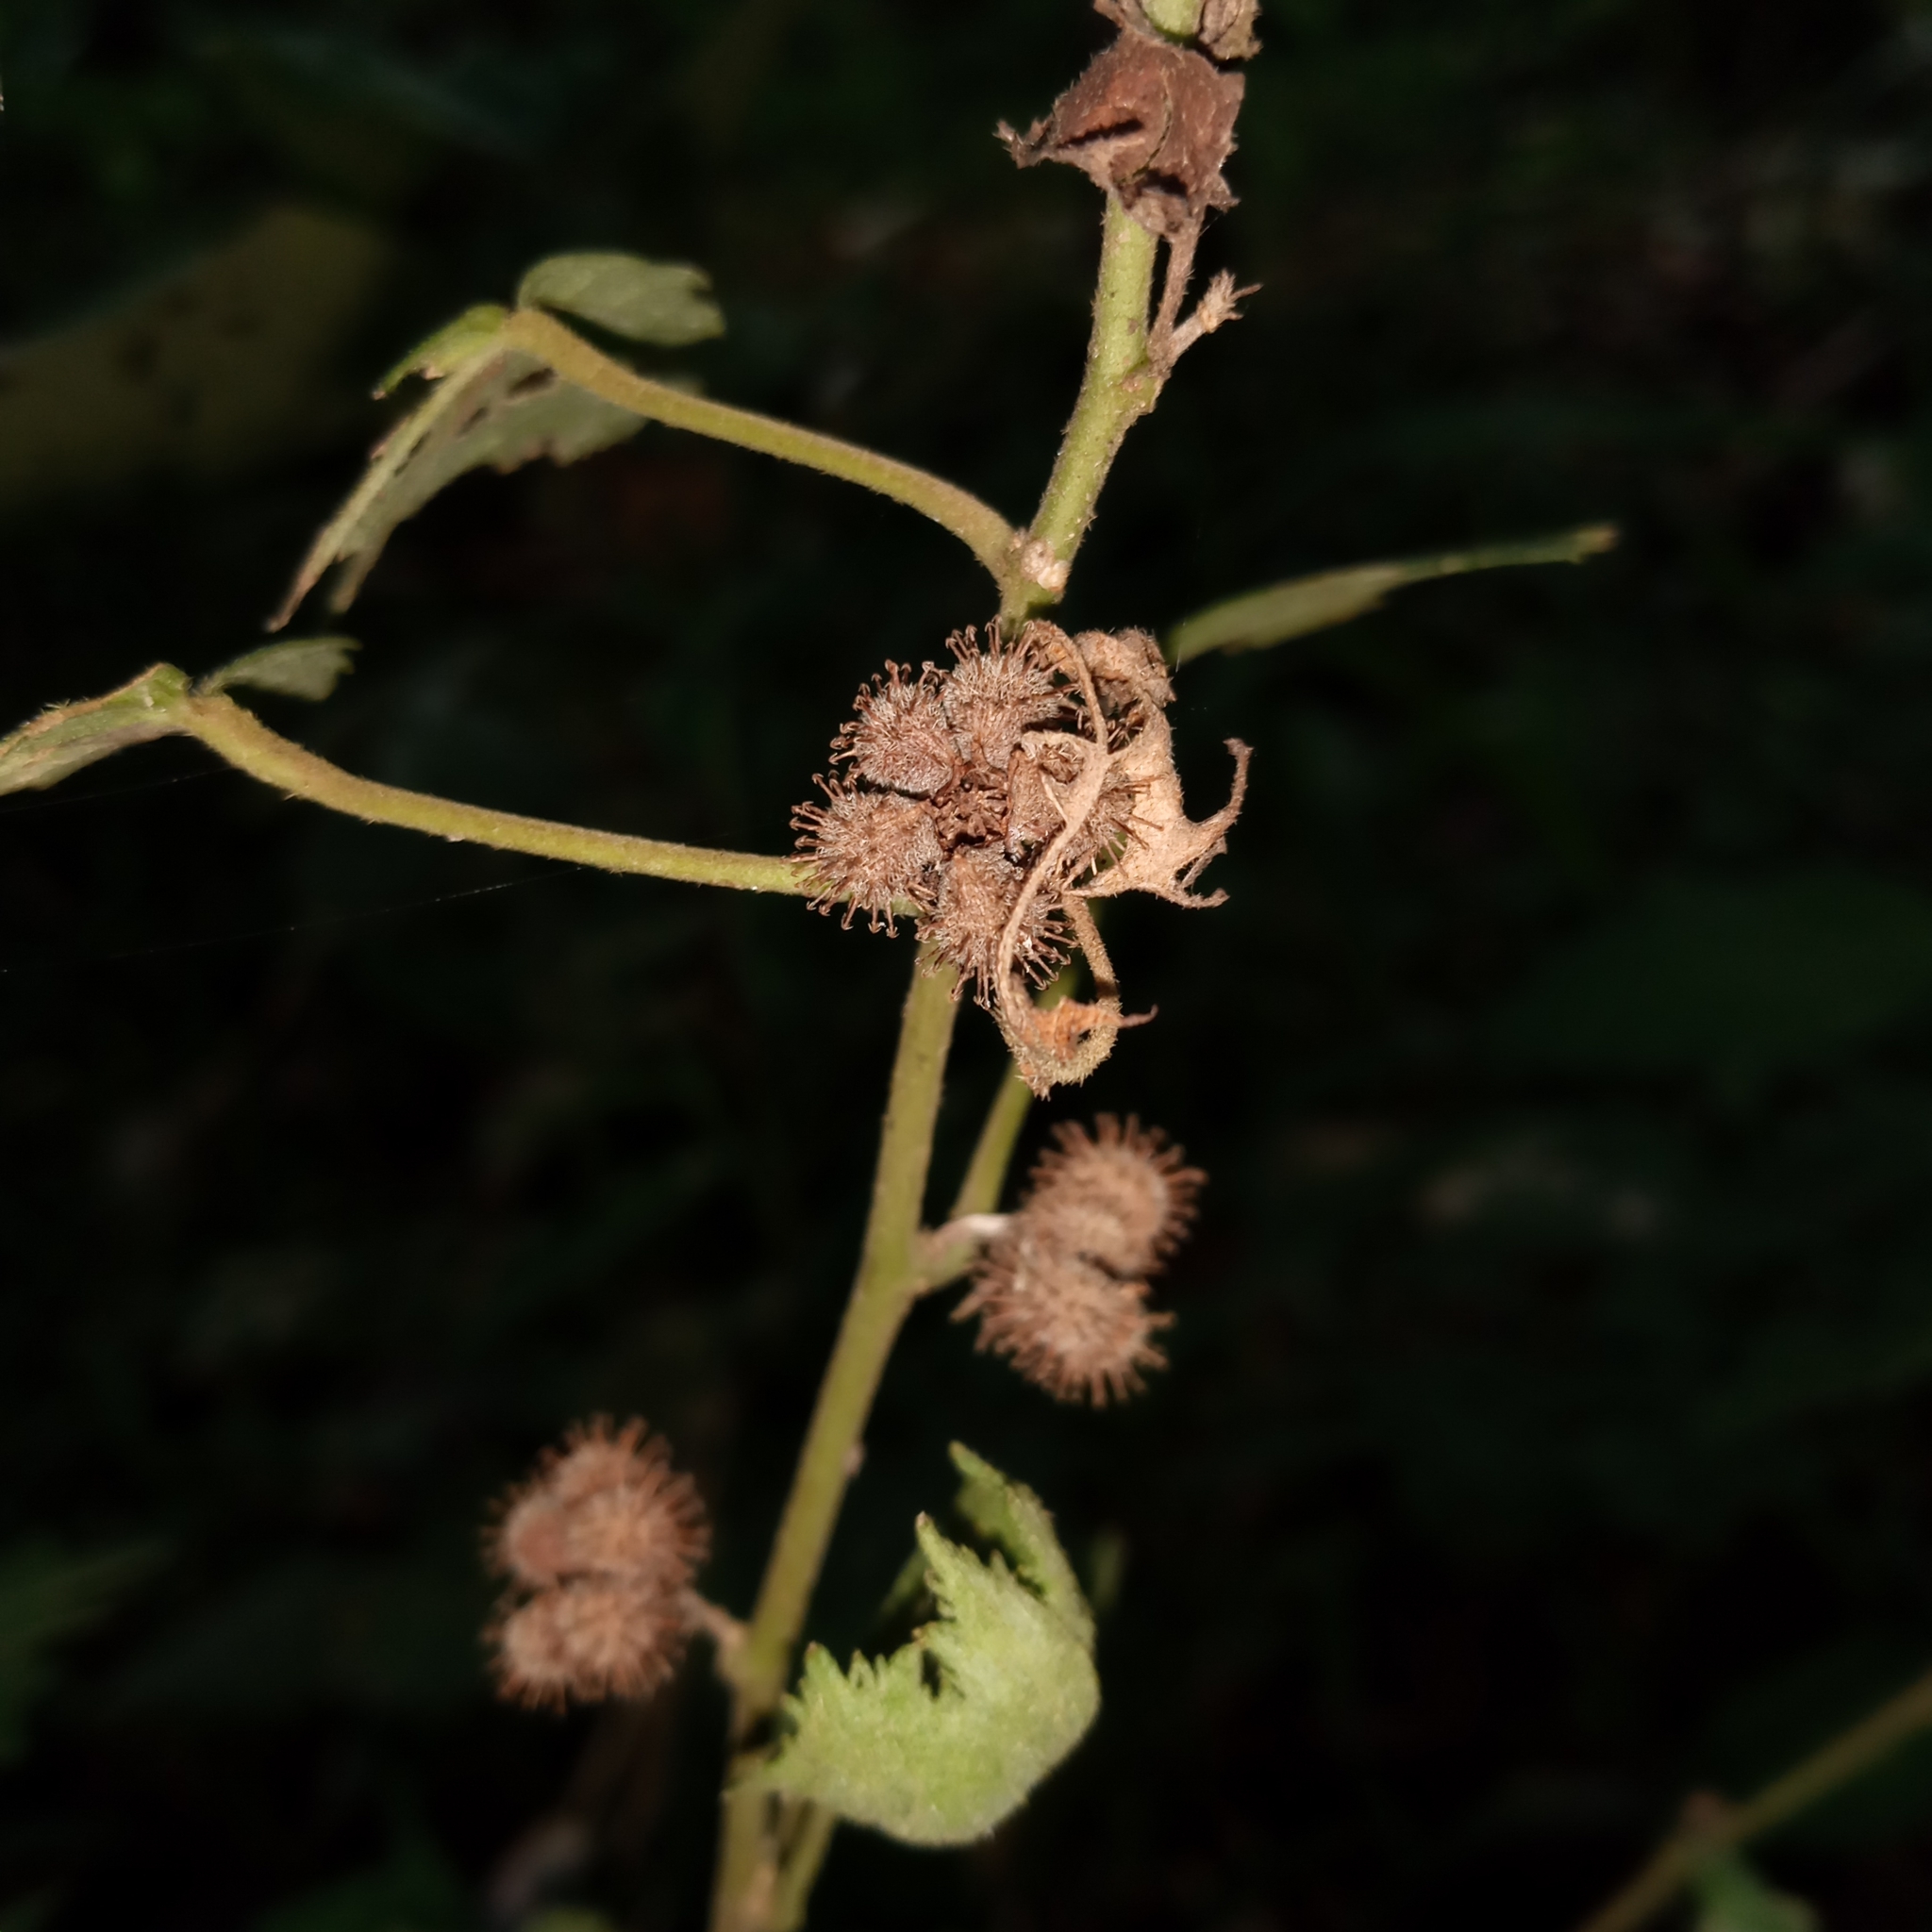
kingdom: Plantae
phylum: Tracheophyta
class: Magnoliopsida
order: Malvales
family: Malvaceae
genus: Urena
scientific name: Urena lobata
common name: Caesarweed
